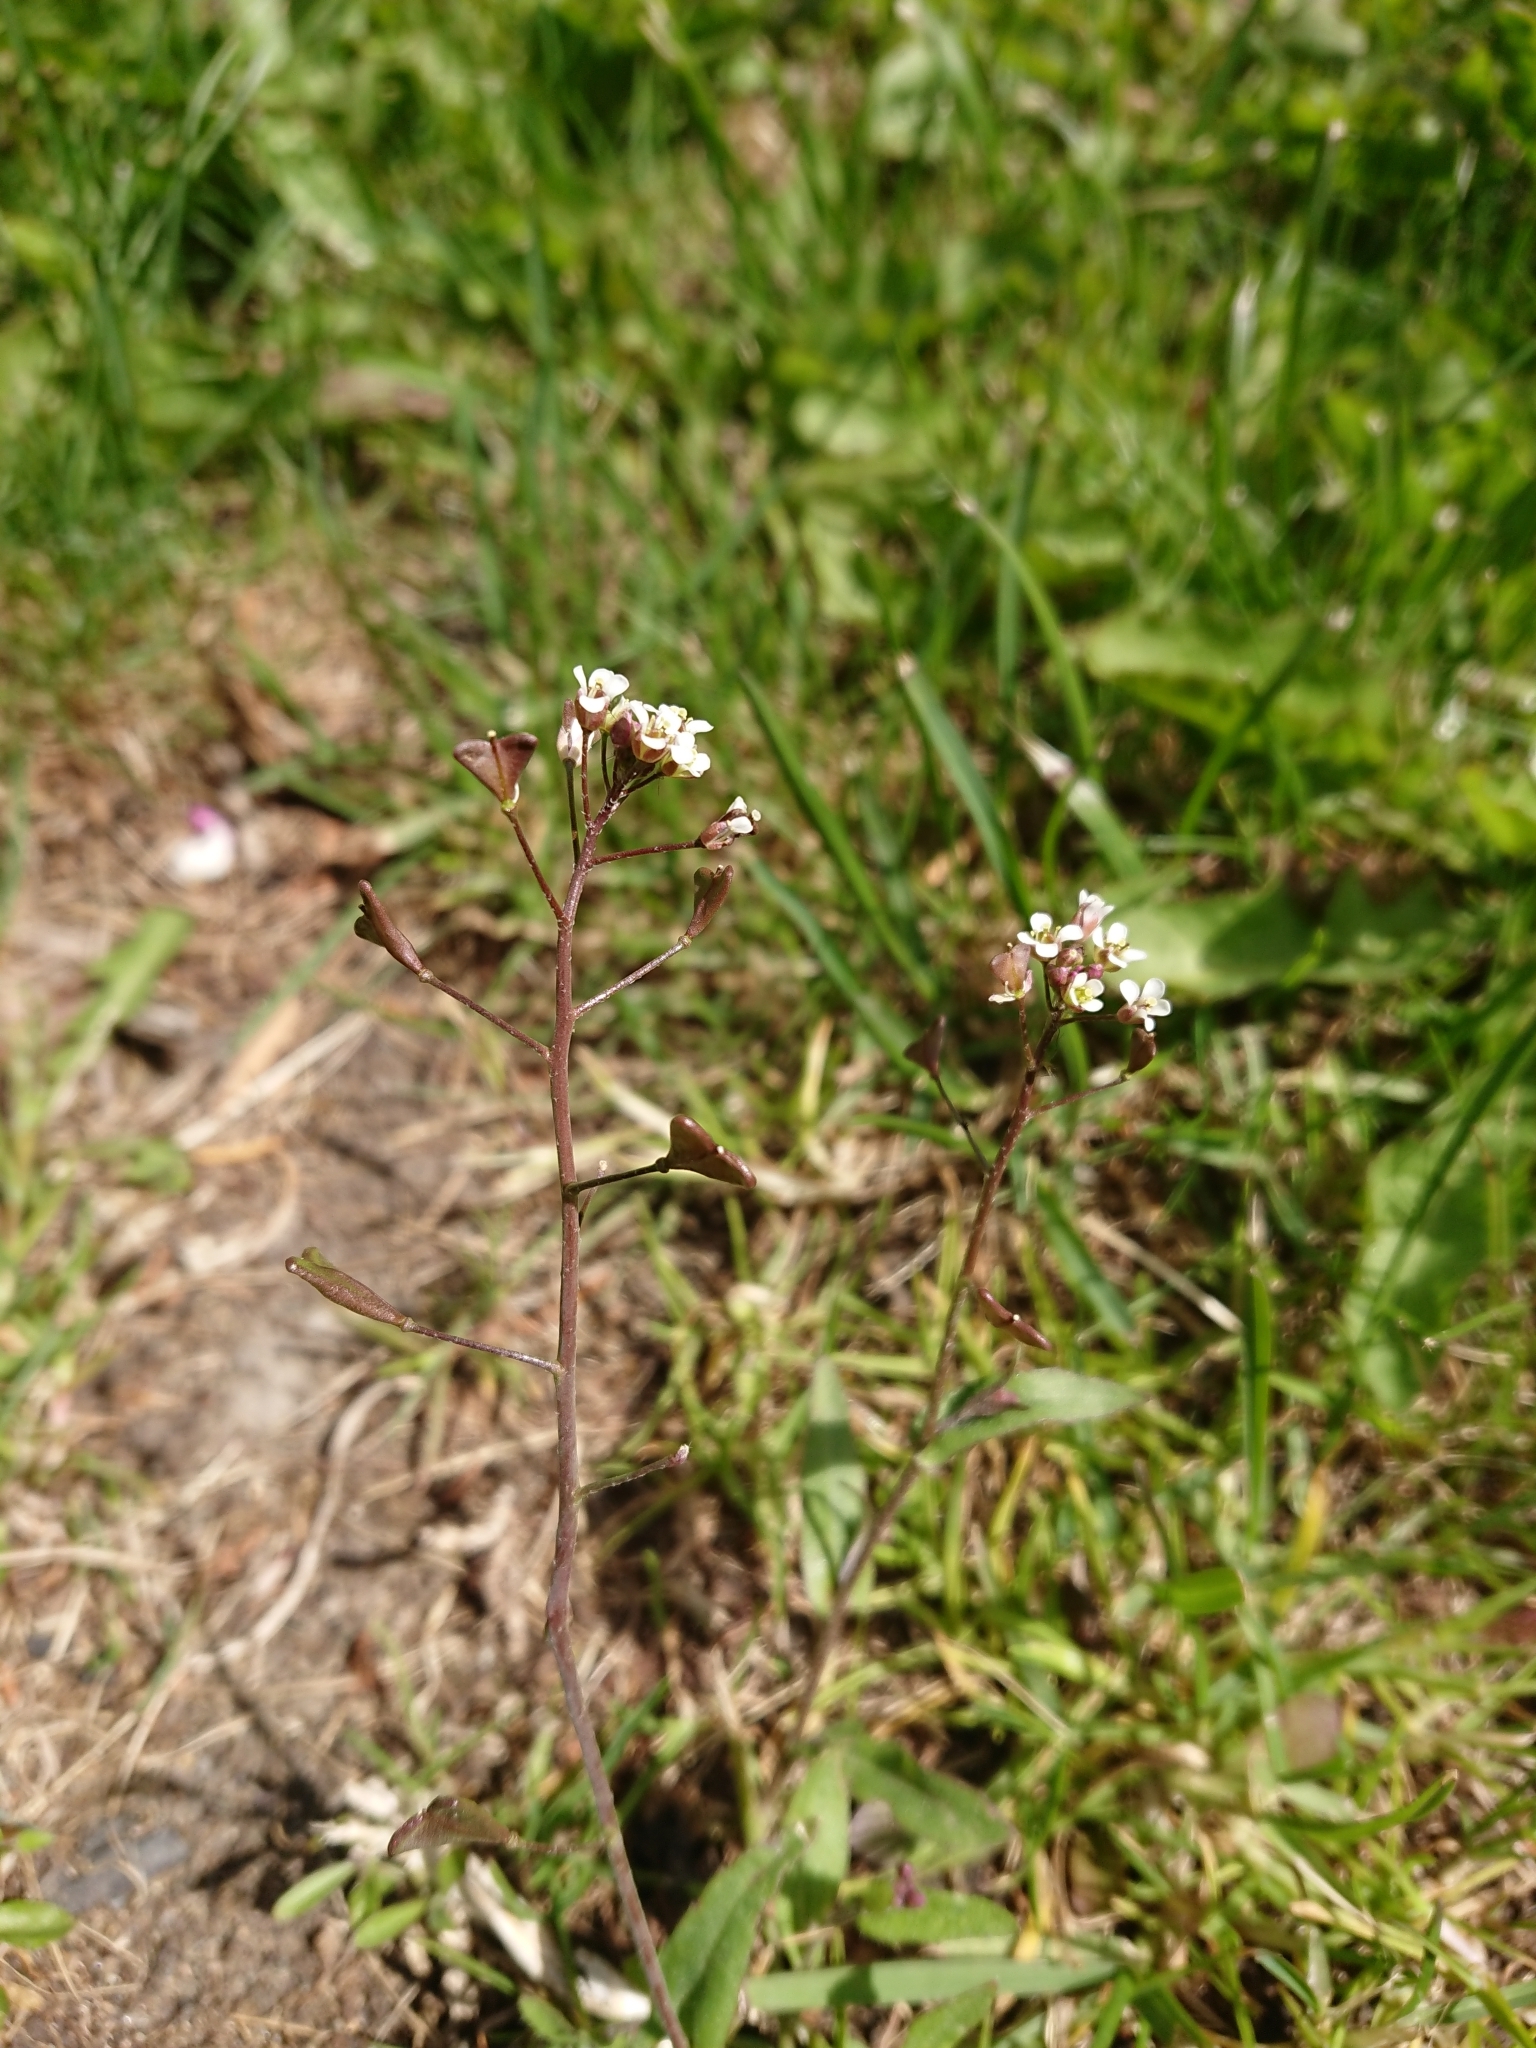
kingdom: Plantae
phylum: Tracheophyta
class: Magnoliopsida
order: Brassicales
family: Brassicaceae
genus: Capsella
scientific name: Capsella bursa-pastoris
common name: Shepherd's purse
